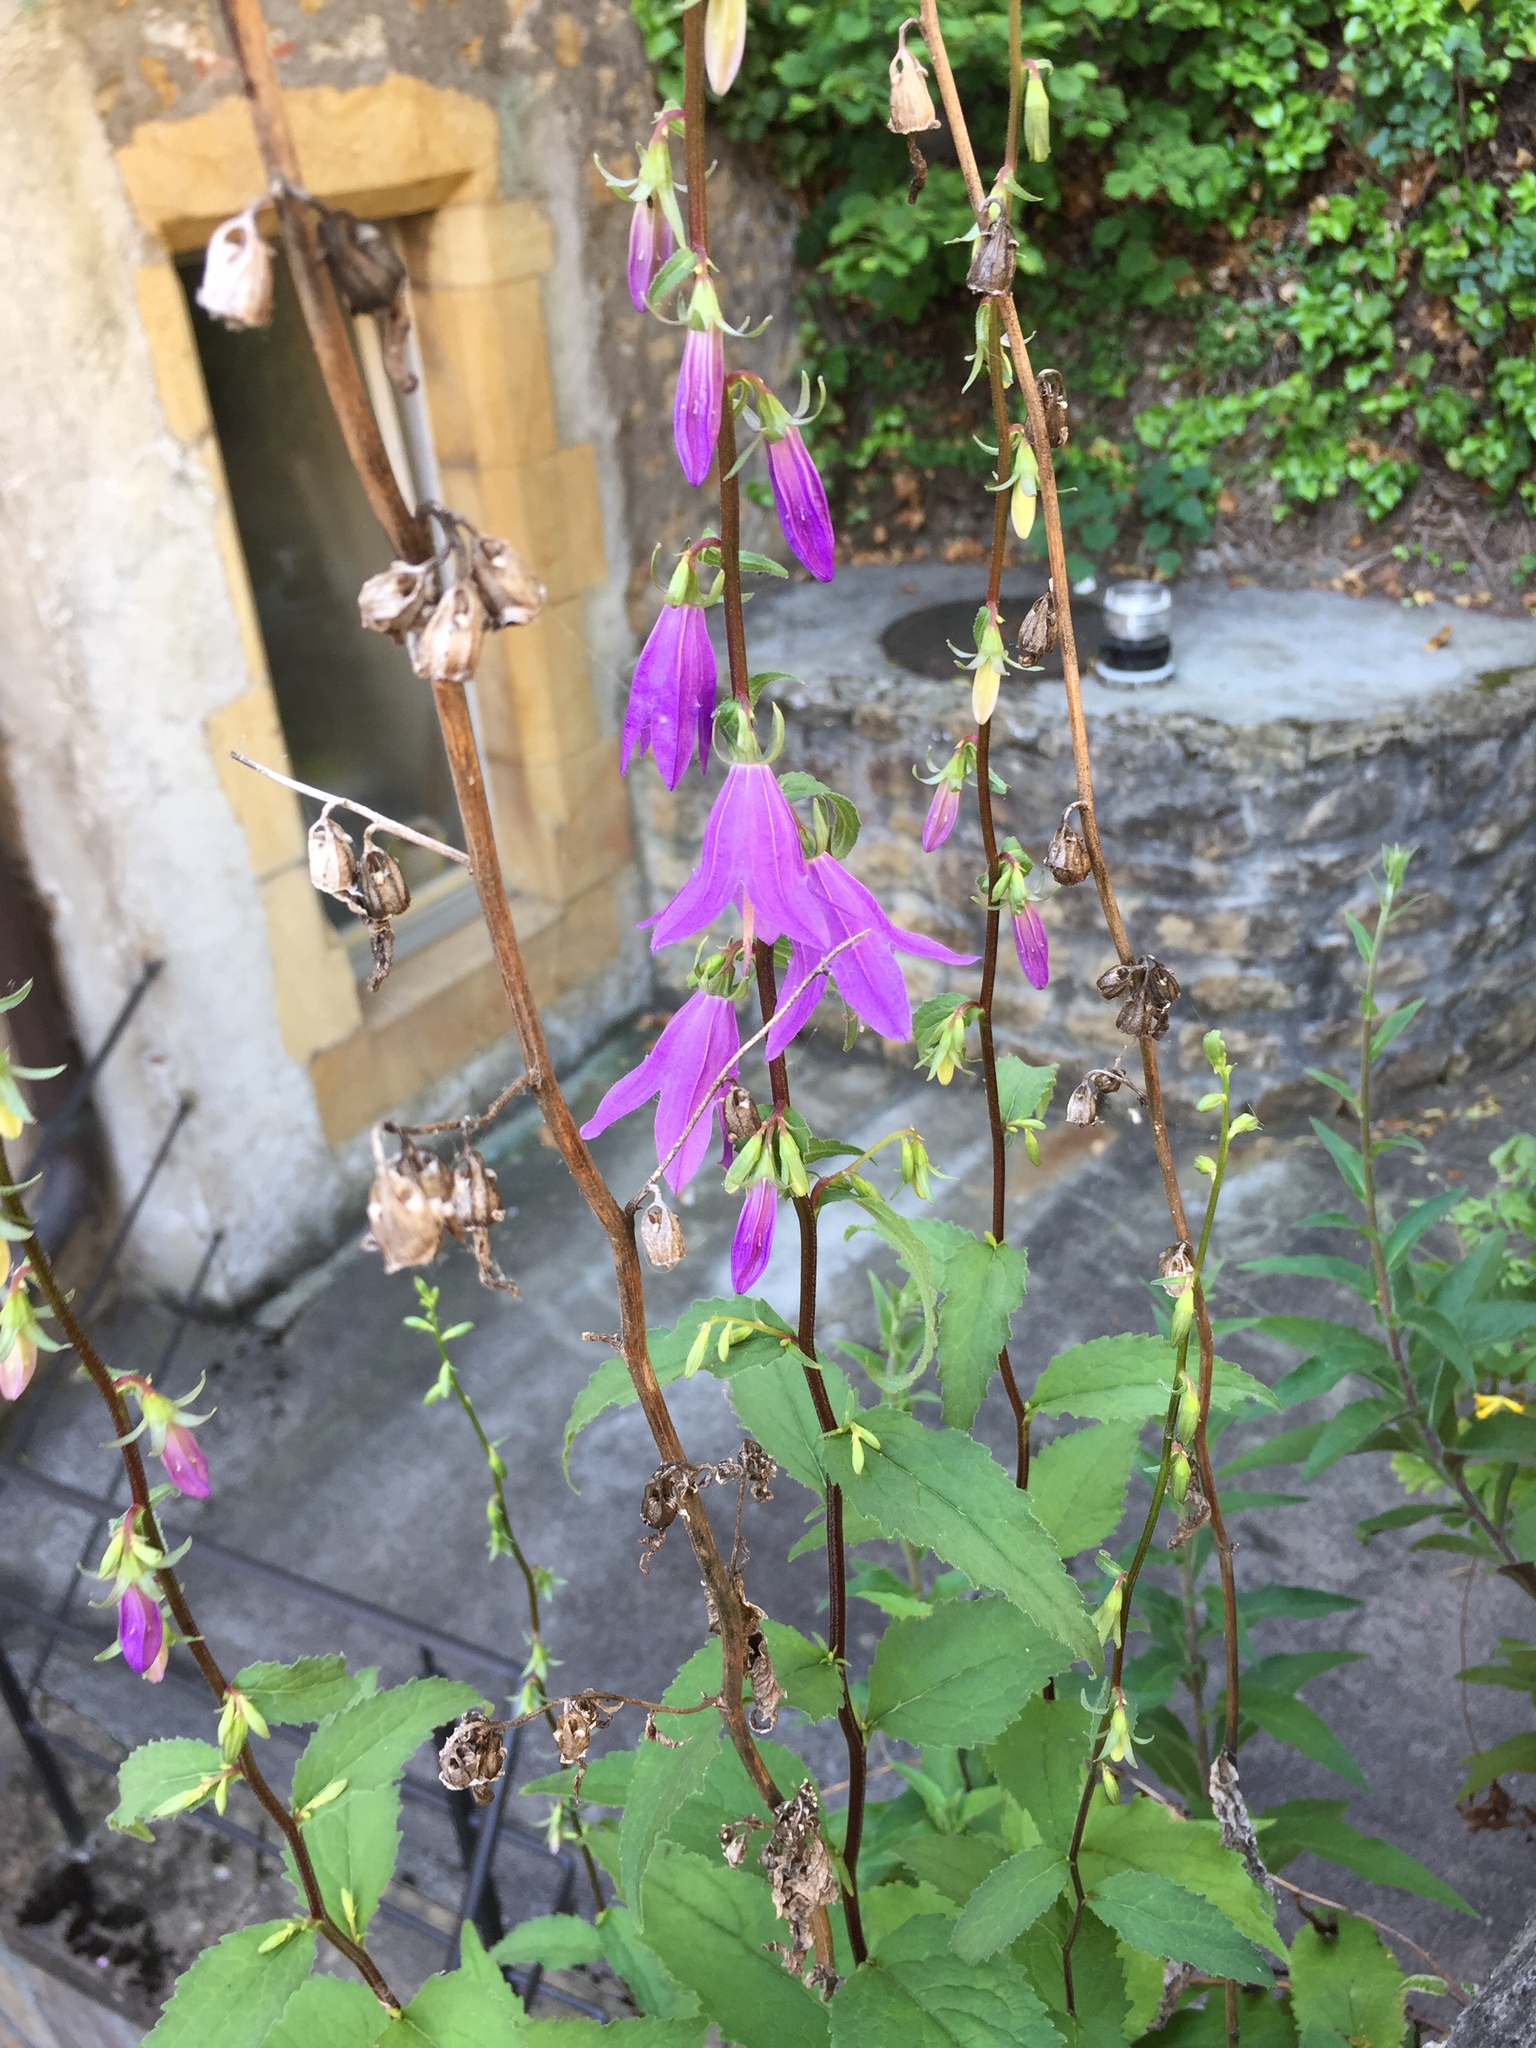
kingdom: Plantae
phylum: Tracheophyta
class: Magnoliopsida
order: Asterales
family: Campanulaceae
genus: Campanula
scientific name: Campanula rapunculoides
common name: Creeping bellflower
